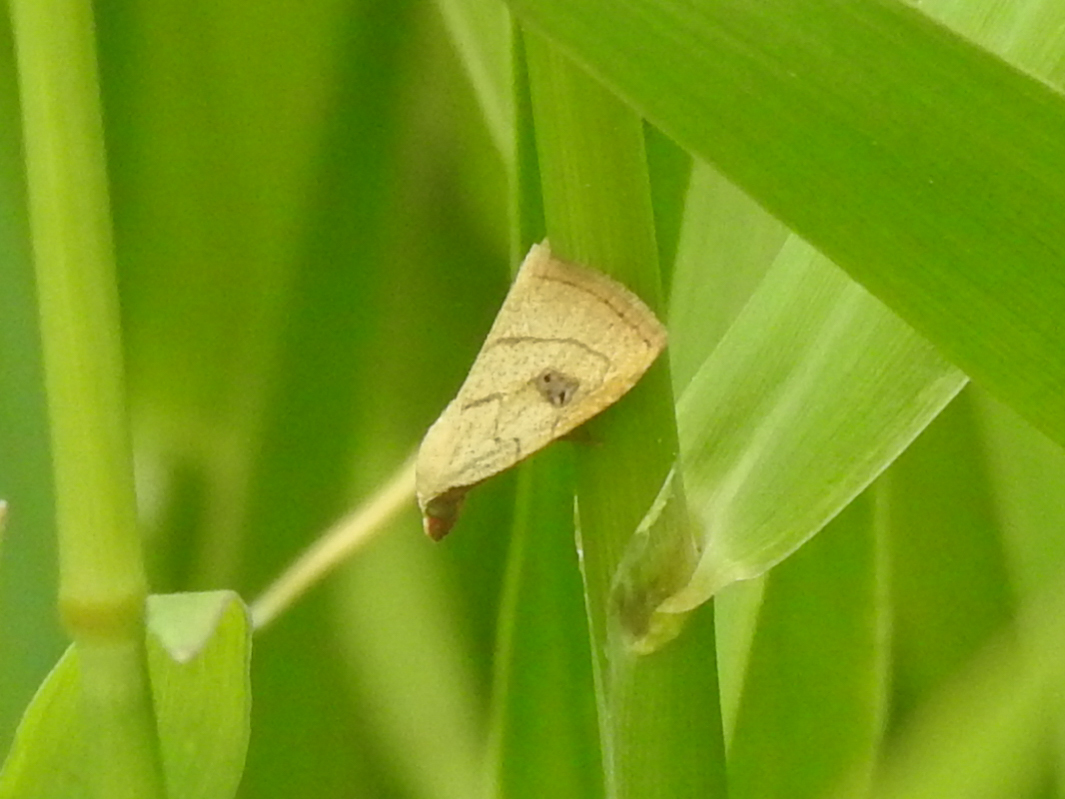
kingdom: Animalia
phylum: Arthropoda
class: Insecta
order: Lepidoptera
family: Erebidae
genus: Rivula
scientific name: Rivula propinqualis
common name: Spotted grass moth
